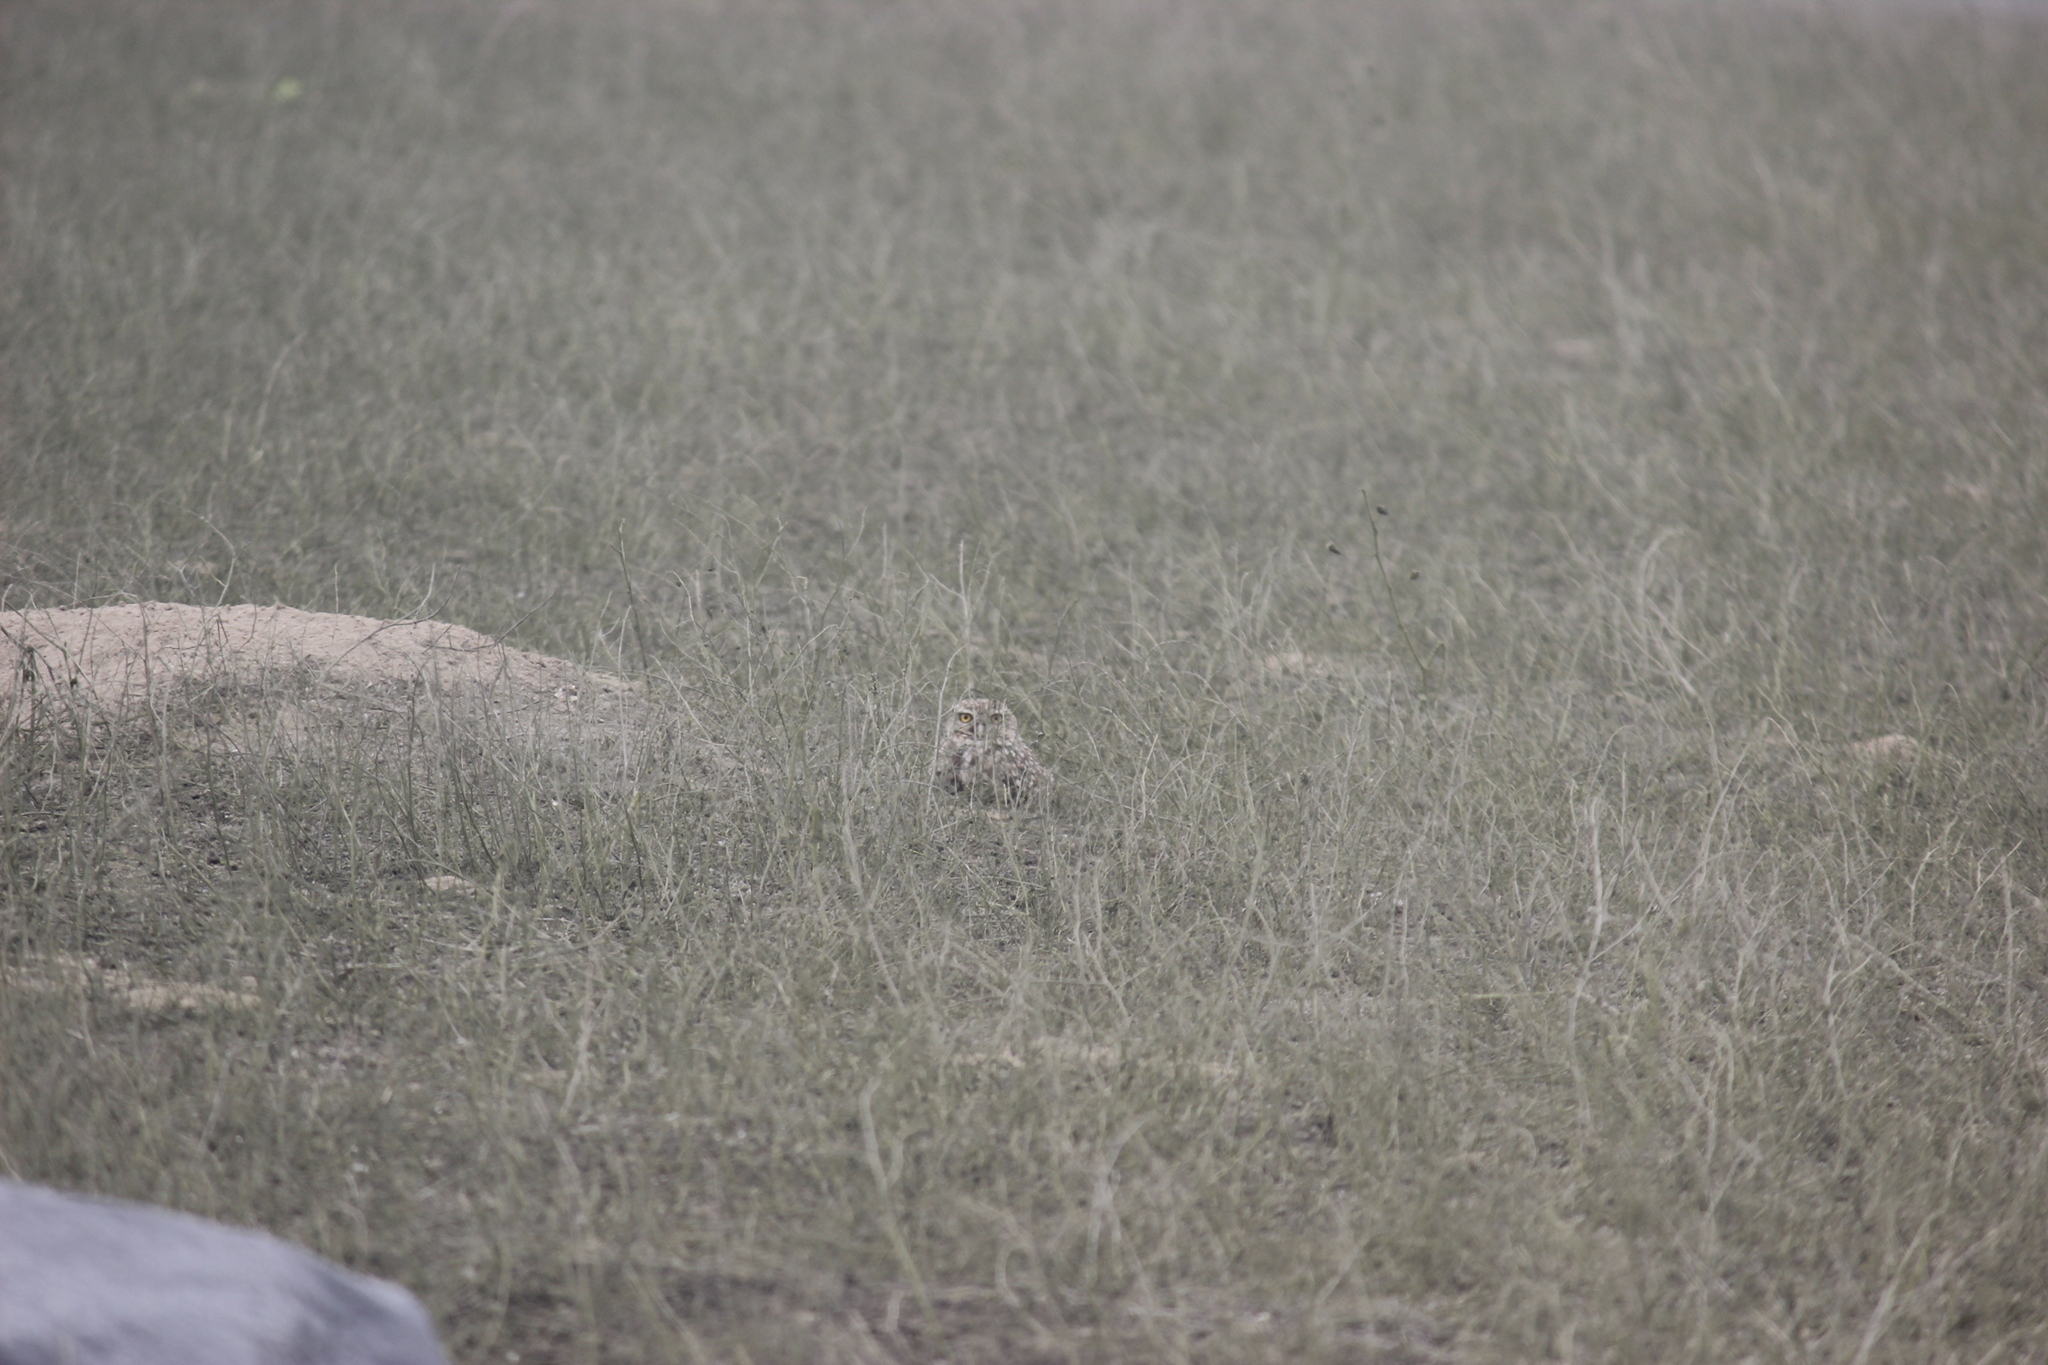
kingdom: Animalia
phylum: Chordata
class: Aves
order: Strigiformes
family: Strigidae
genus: Athene
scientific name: Athene cunicularia
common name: Burrowing owl
